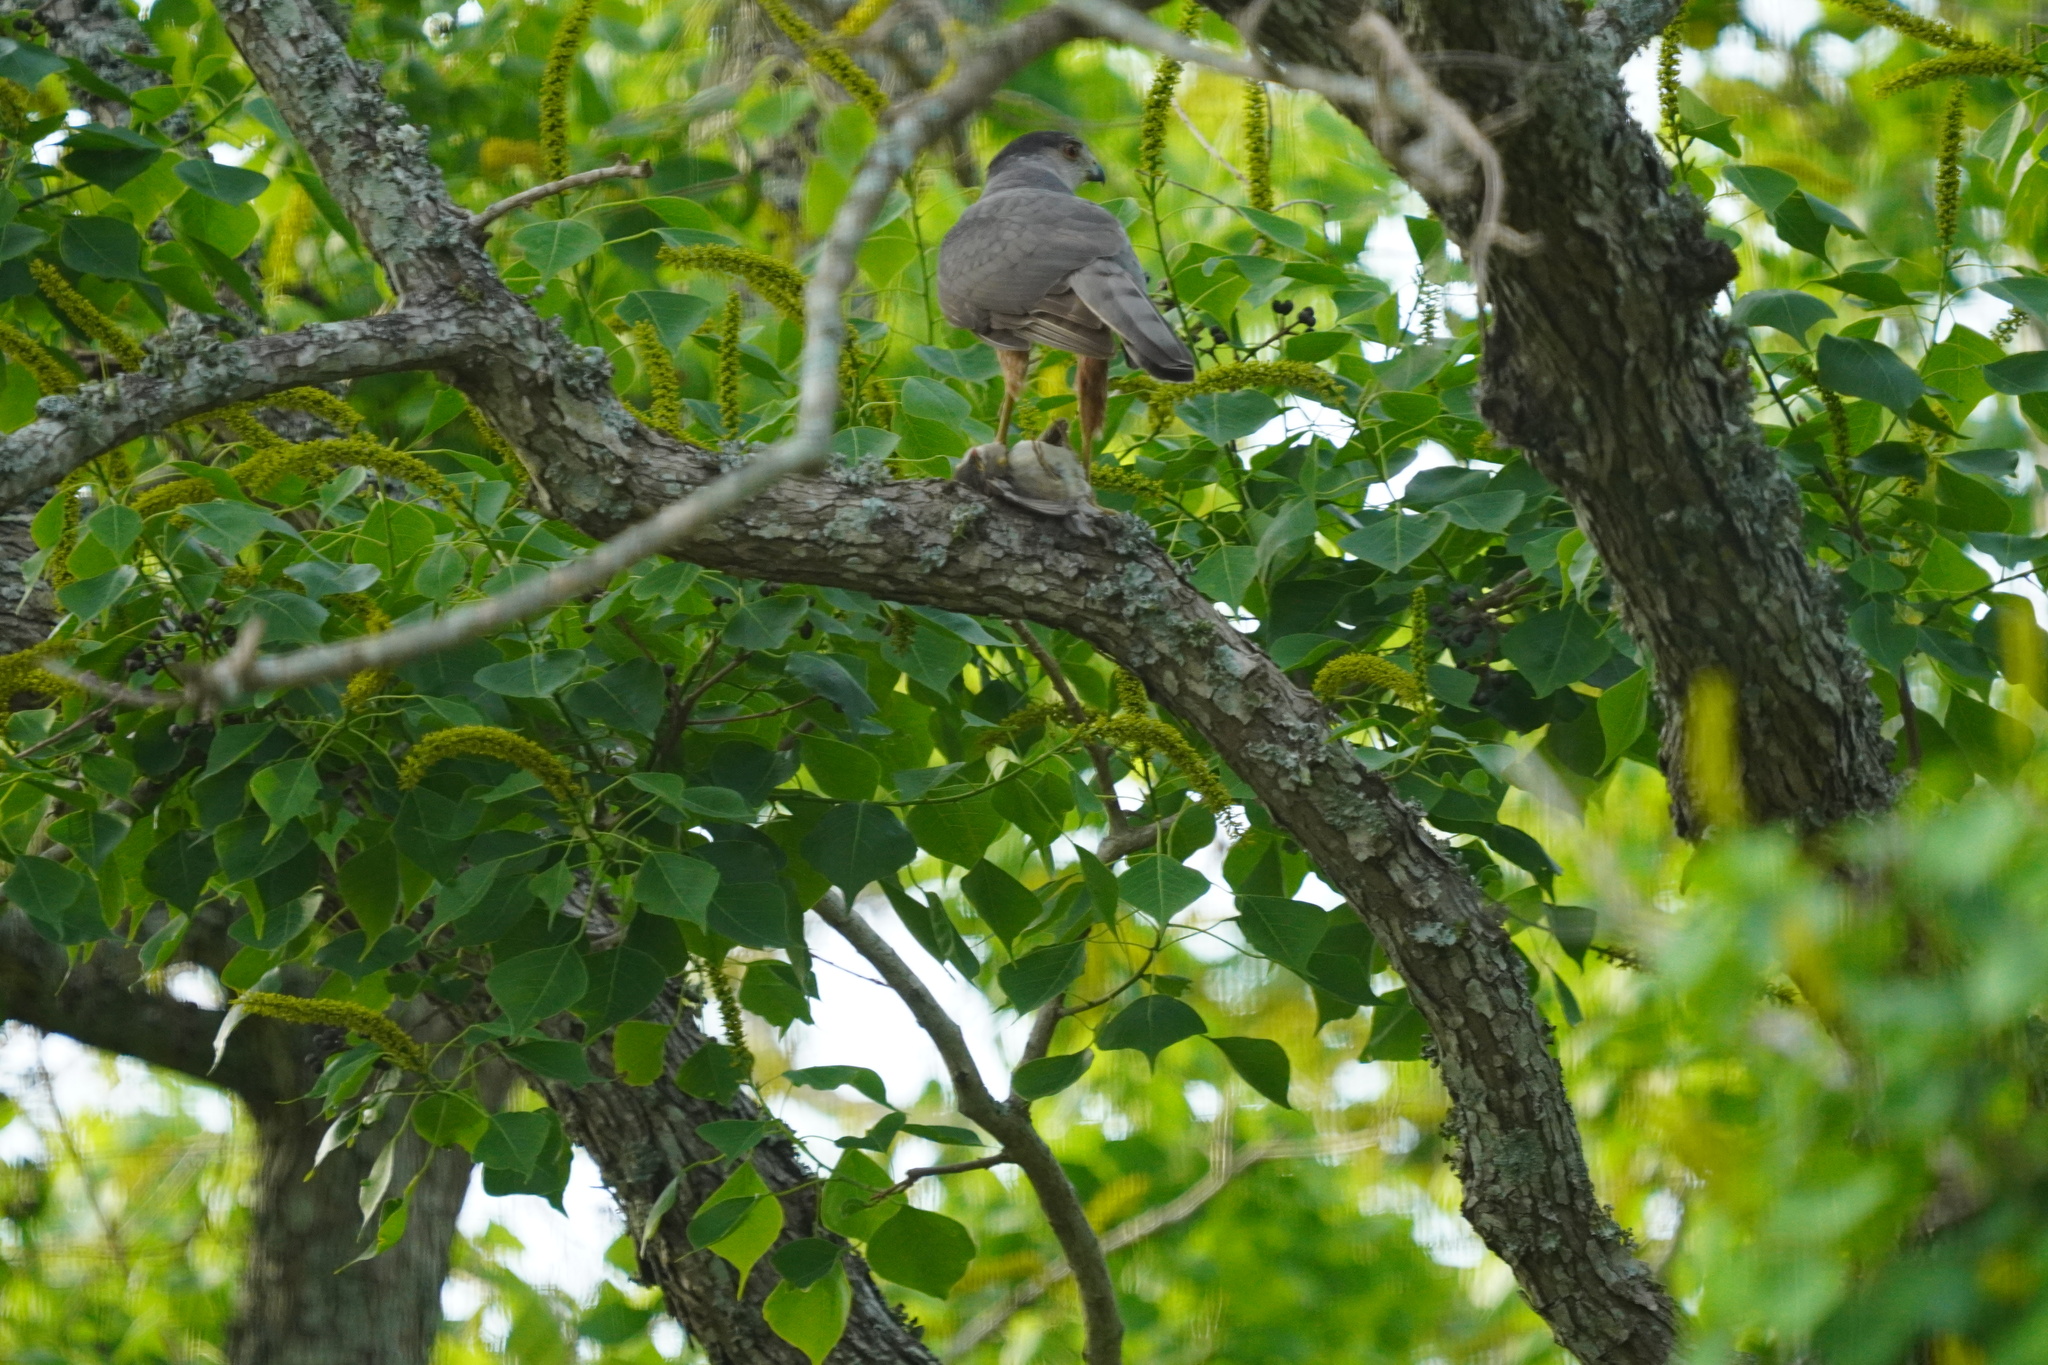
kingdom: Animalia
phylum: Chordata
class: Aves
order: Accipitriformes
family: Accipitridae
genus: Accipiter
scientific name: Accipiter cooperii
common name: Cooper's hawk
